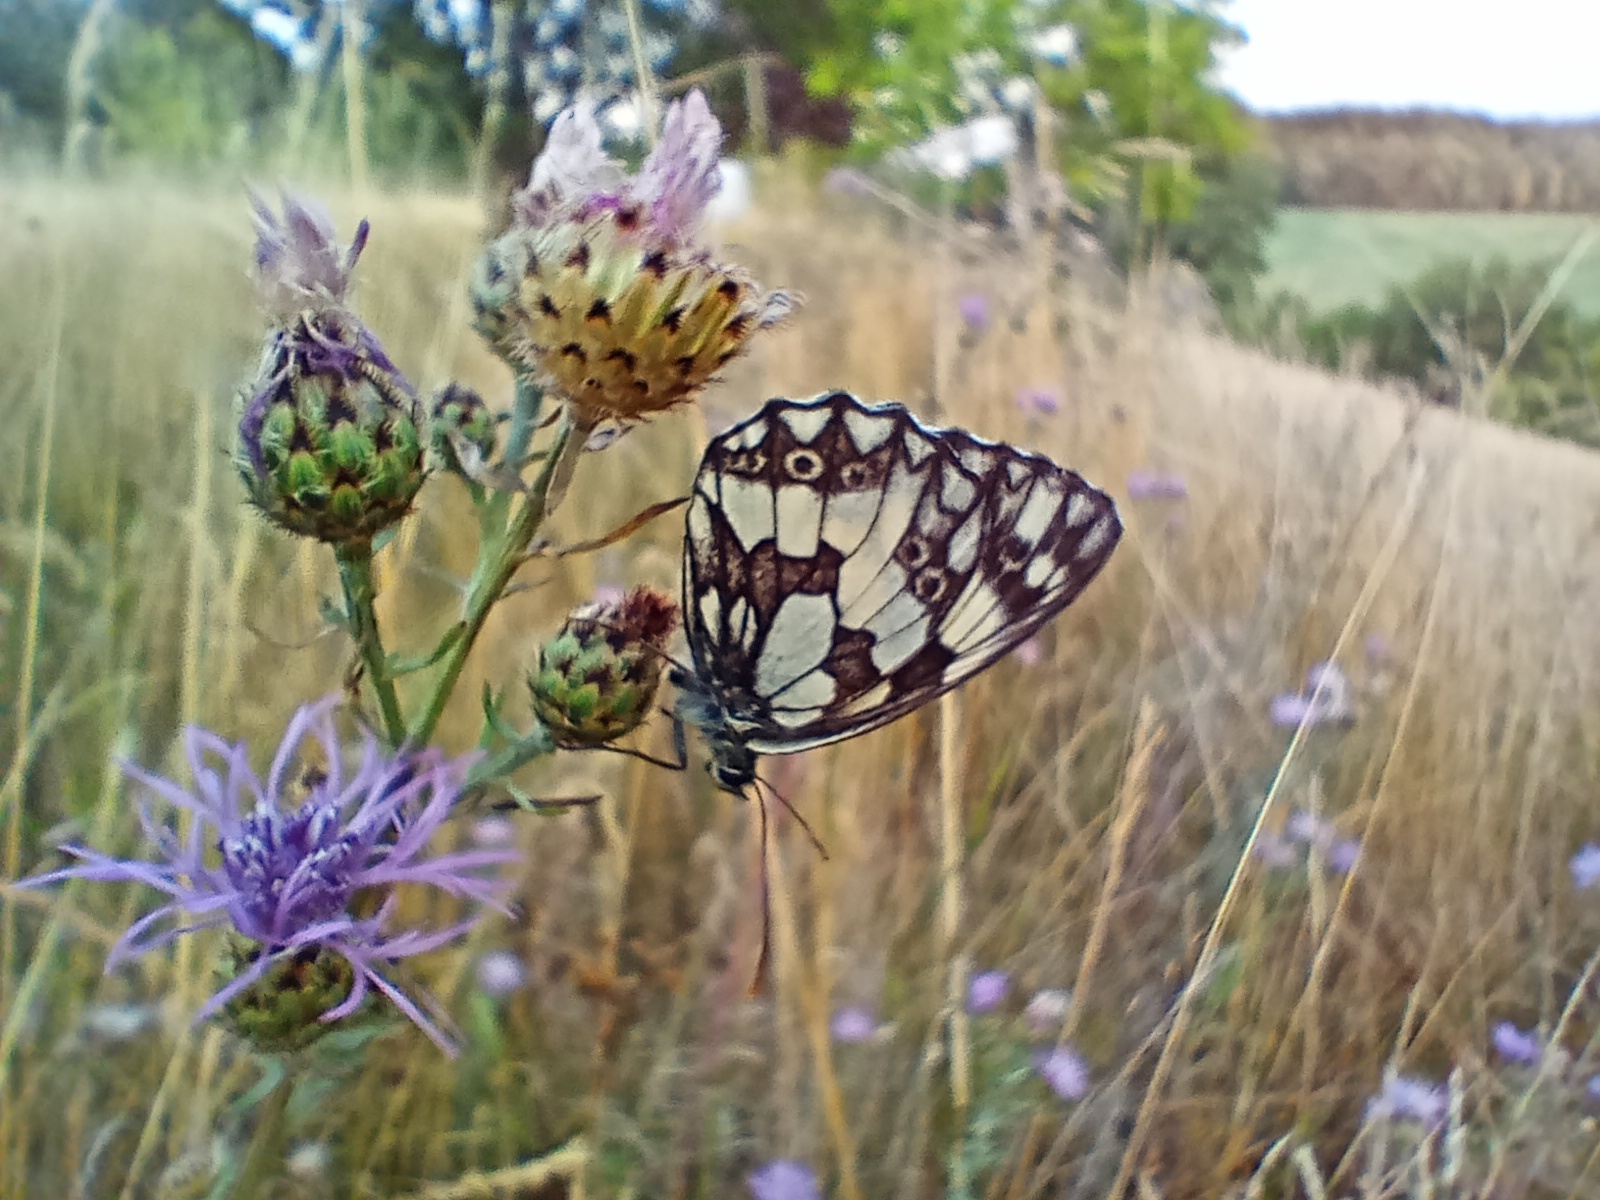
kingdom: Animalia
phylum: Arthropoda
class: Insecta
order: Lepidoptera
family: Nymphalidae
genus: Melanargia
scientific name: Melanargia galathea
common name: Marbled white
